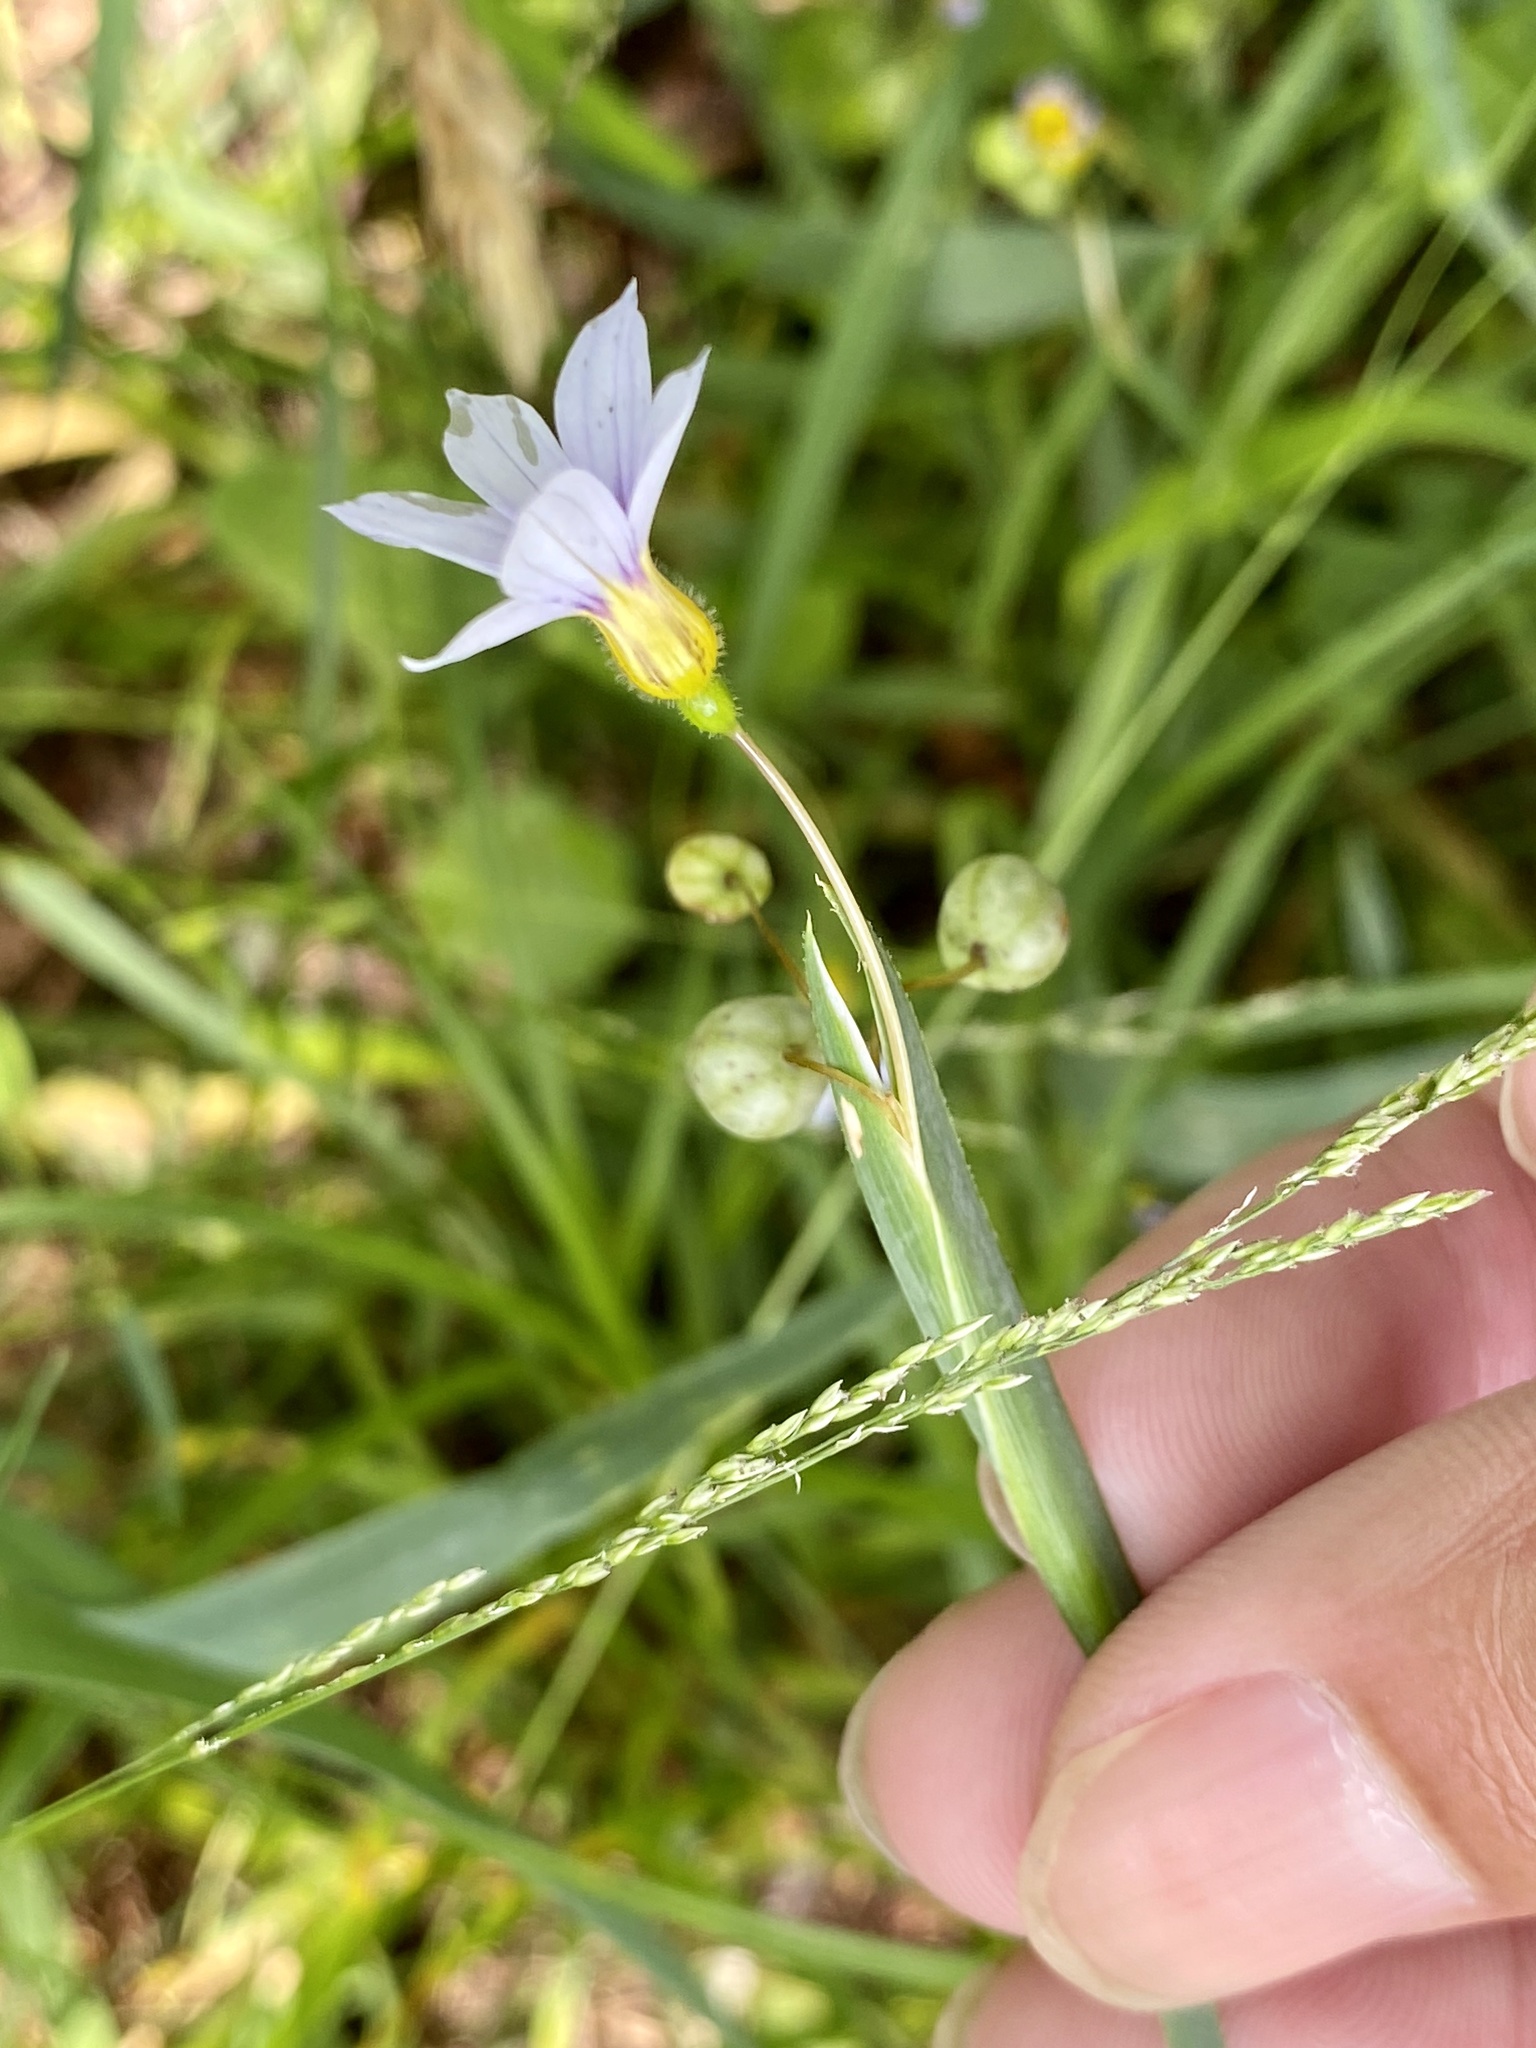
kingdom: Plantae
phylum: Tracheophyta
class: Liliopsida
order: Asparagales
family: Iridaceae
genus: Sisyrinchium
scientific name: Sisyrinchium micranthum
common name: Bermuda pigroot
